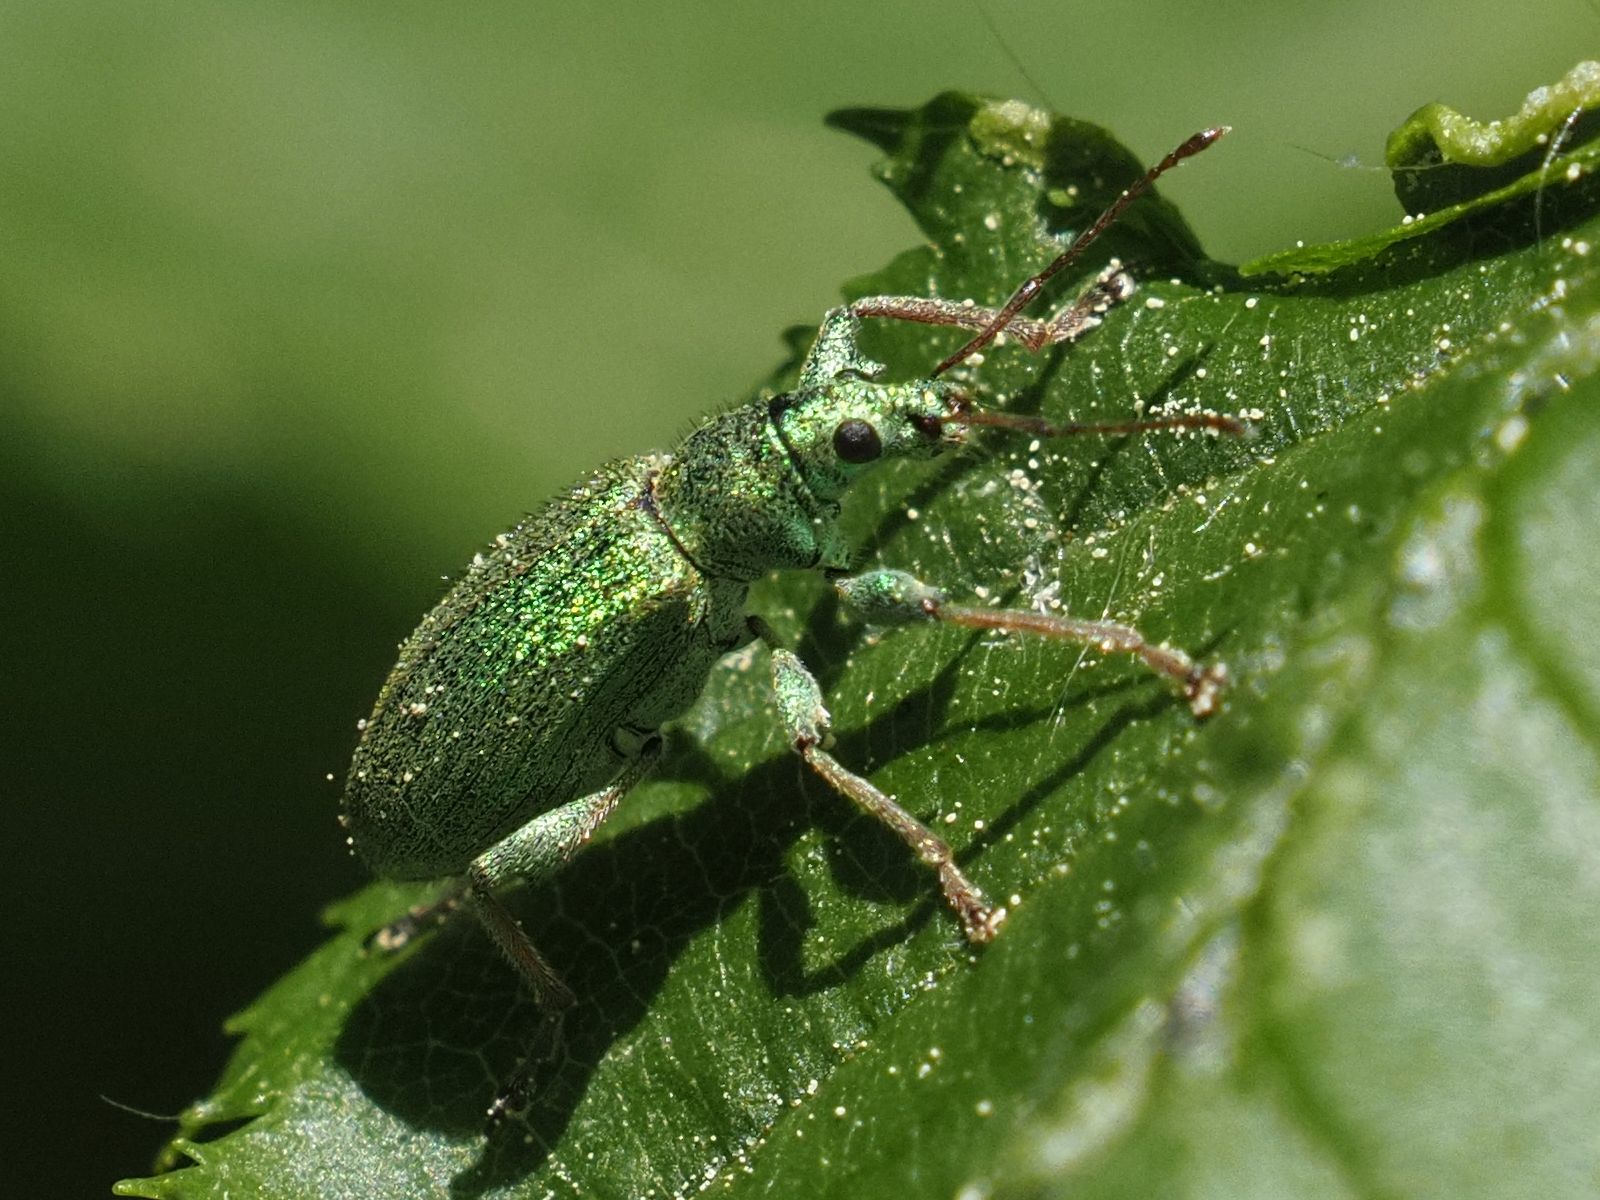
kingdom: Animalia
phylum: Arthropoda
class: Insecta
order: Coleoptera
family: Curculionidae
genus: Phyllobius
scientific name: Phyllobius arborator
